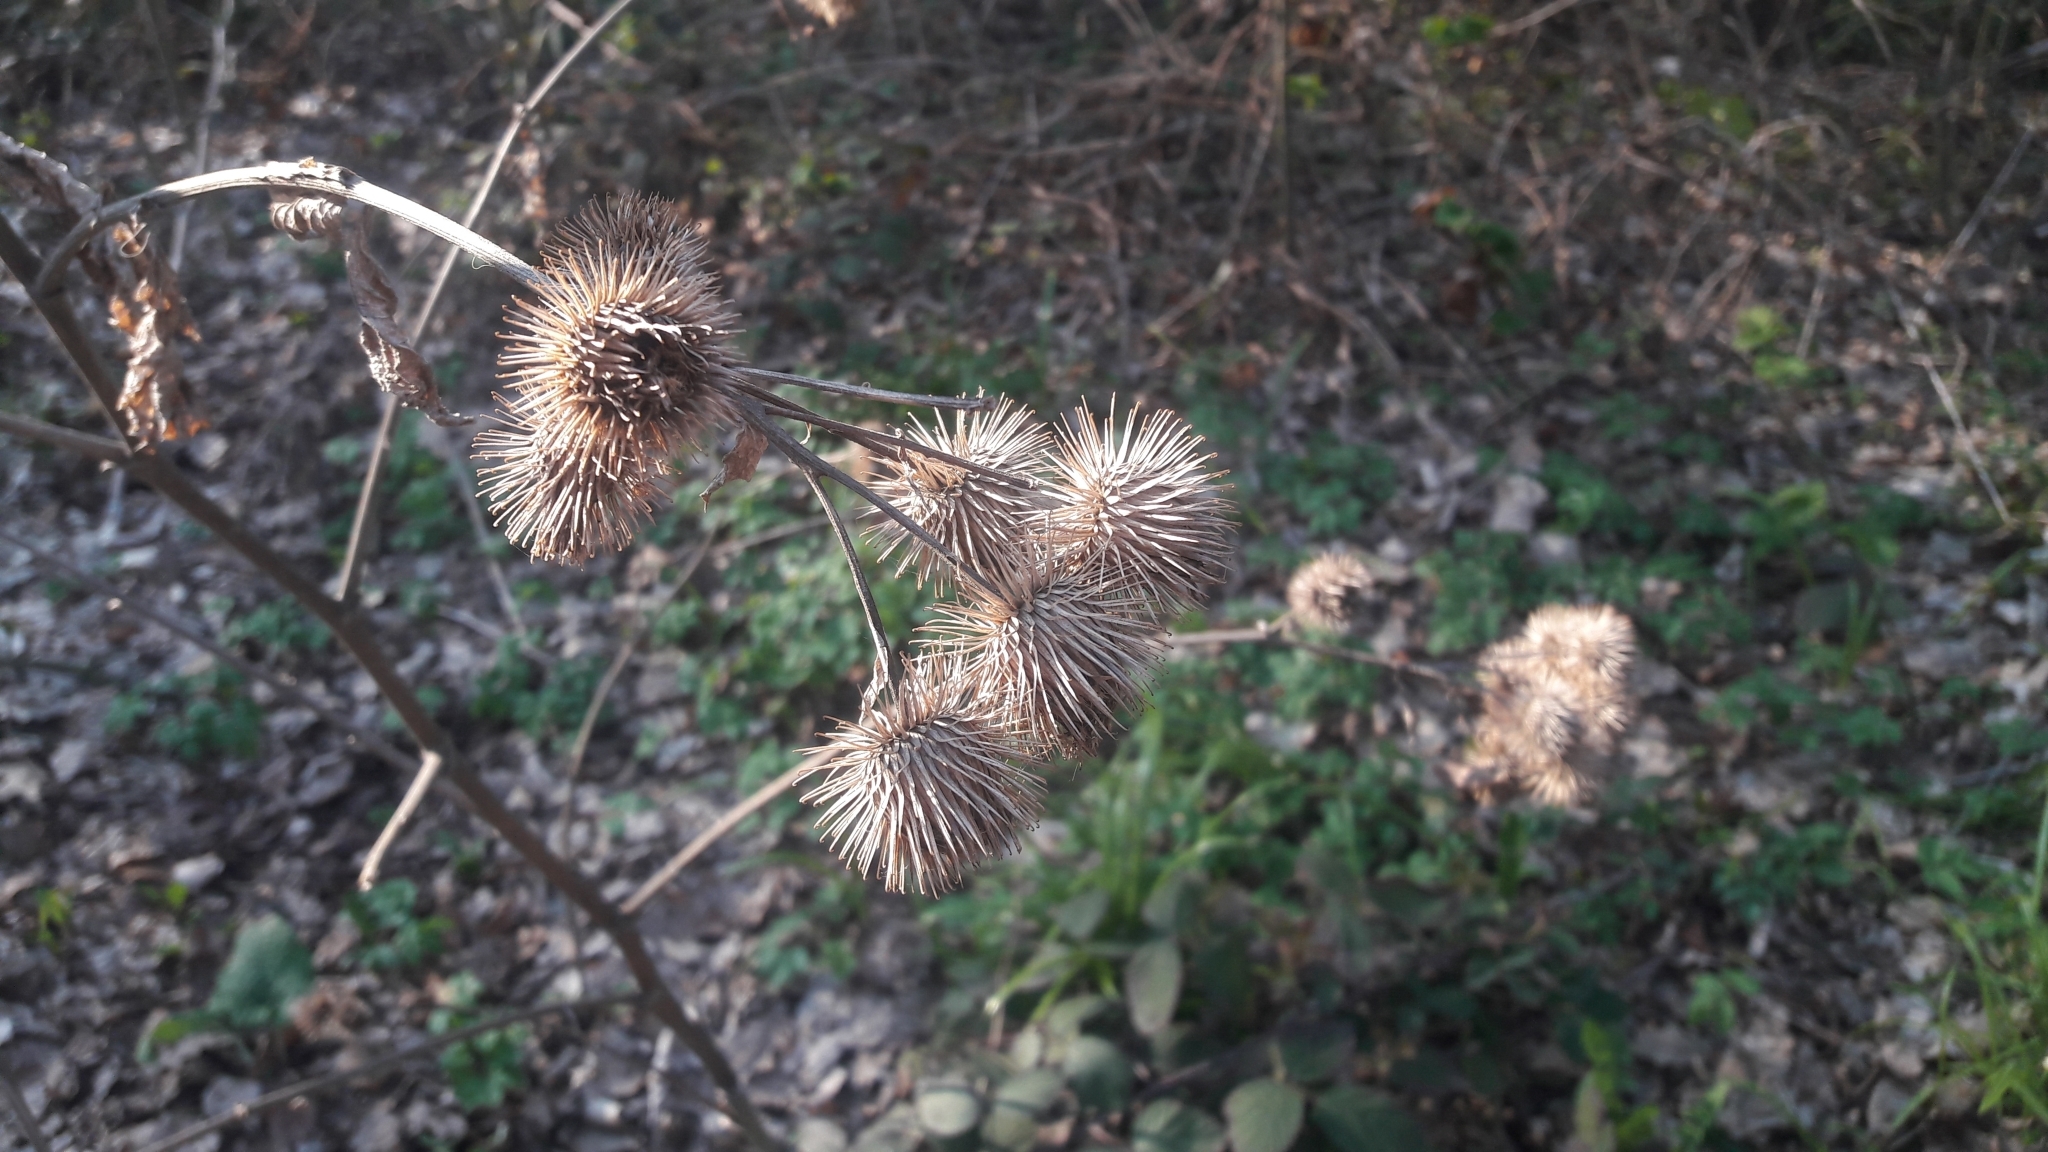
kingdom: Plantae
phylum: Tracheophyta
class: Magnoliopsida
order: Asterales
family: Asteraceae
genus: Arctium
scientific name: Arctium
